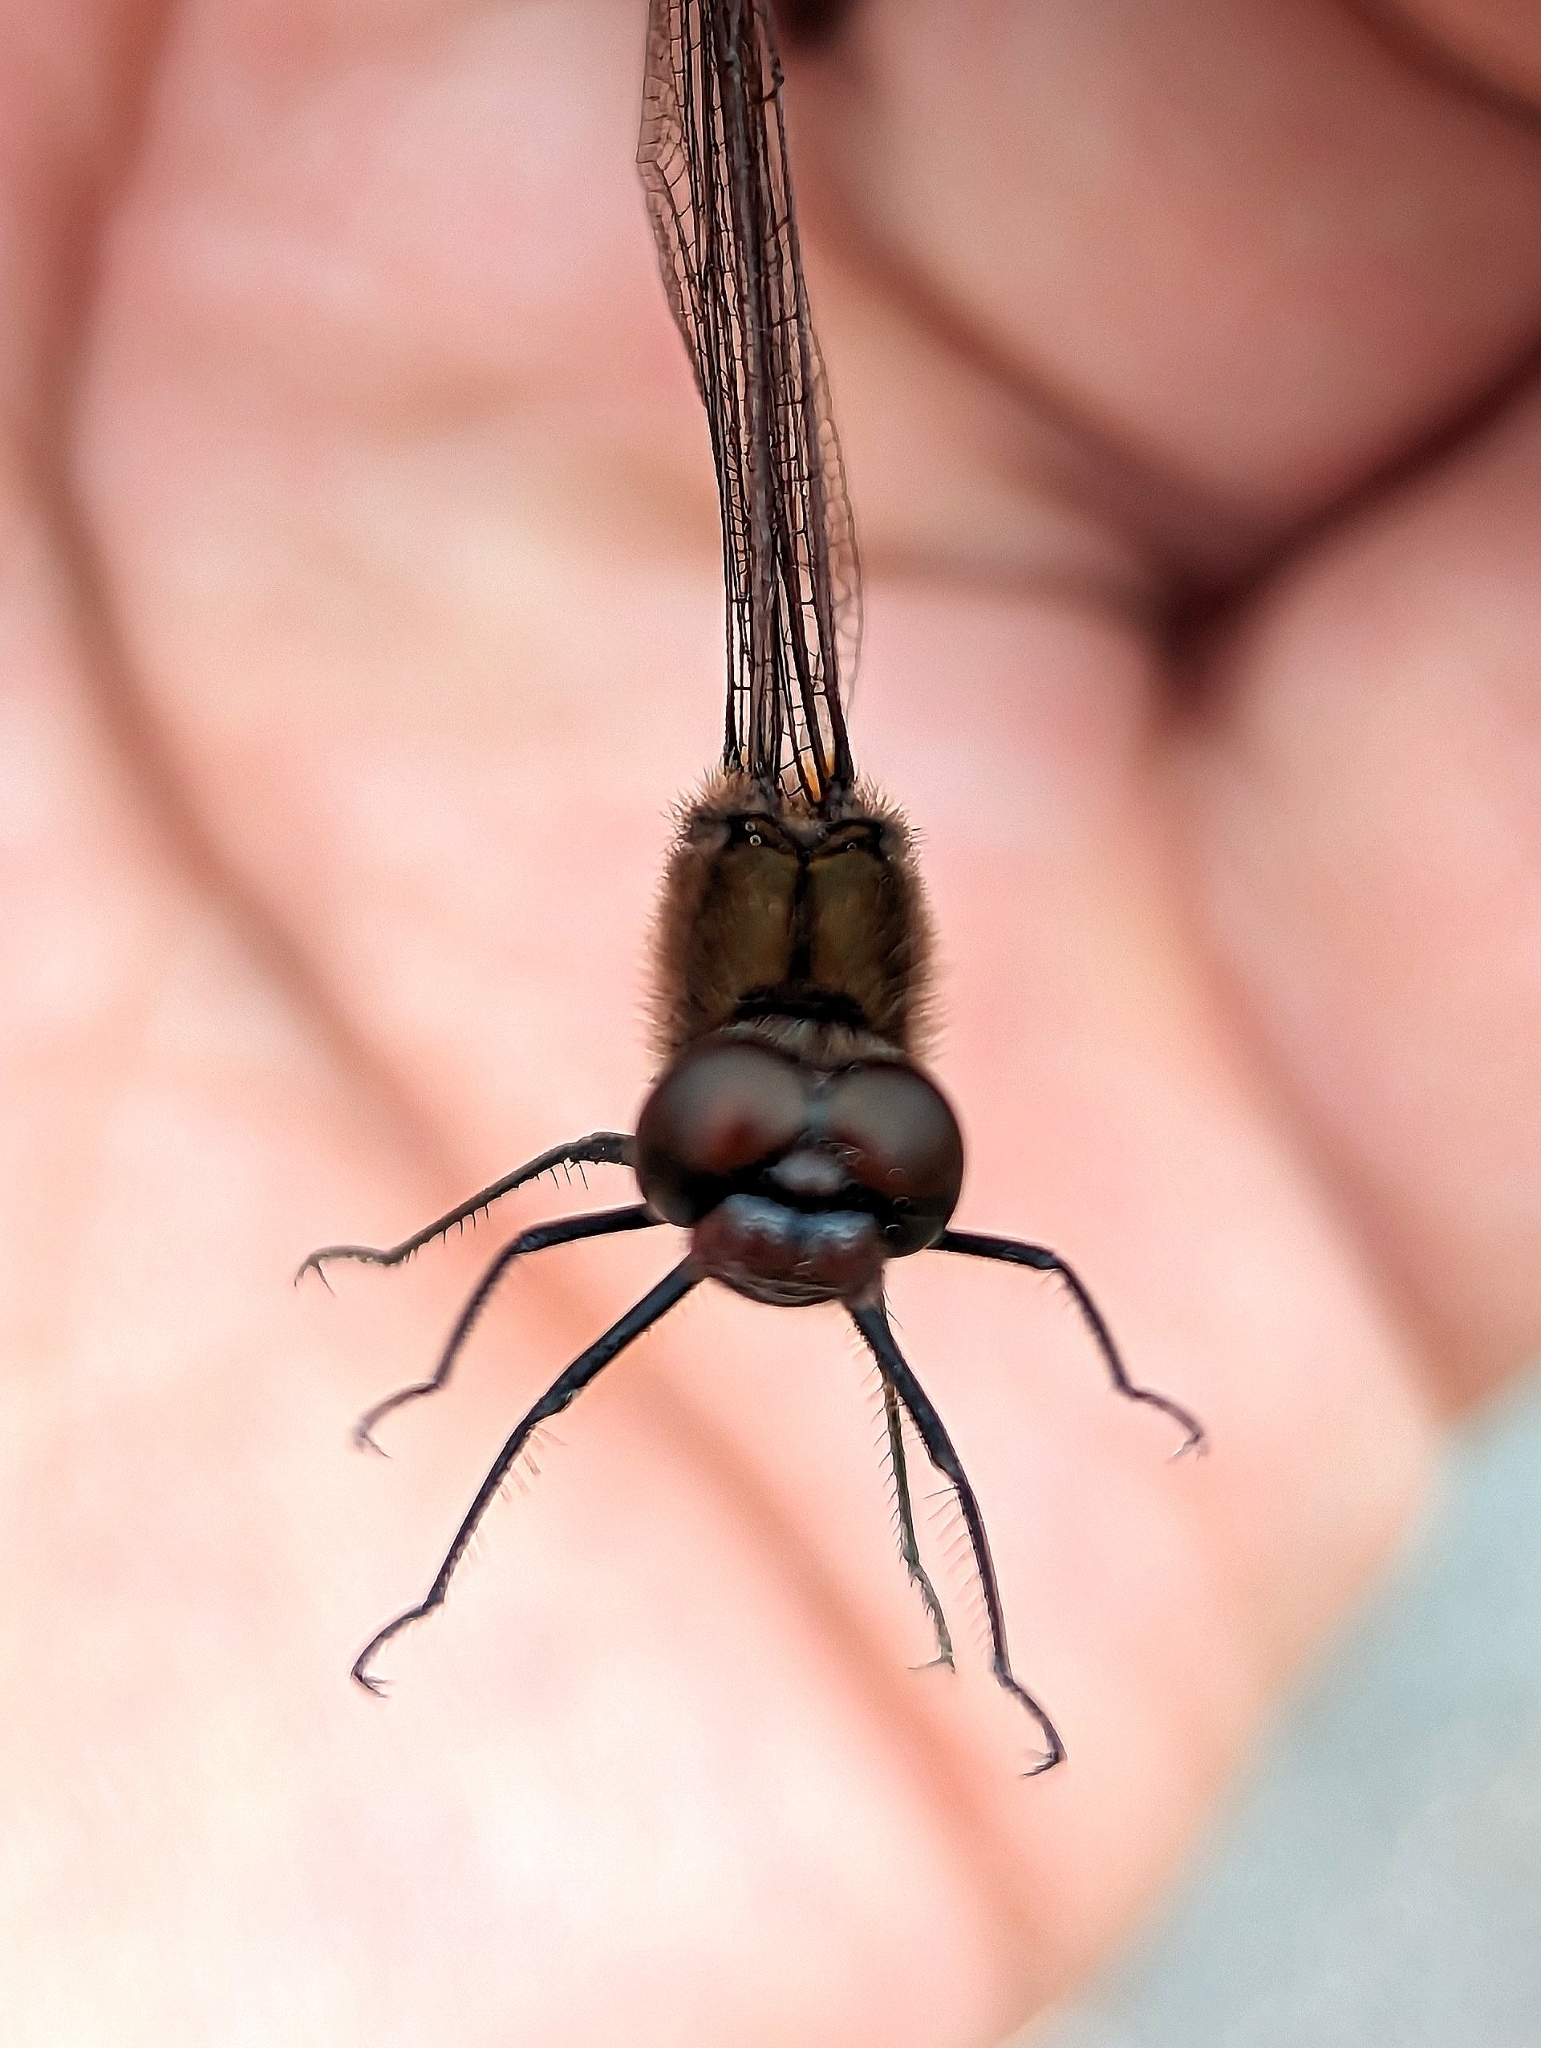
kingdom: Animalia
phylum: Arthropoda
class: Insecta
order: Odonata
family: Libellulidae
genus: Sympetrum
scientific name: Sympetrum costiferum
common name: Saffron-winged meadowhawk
